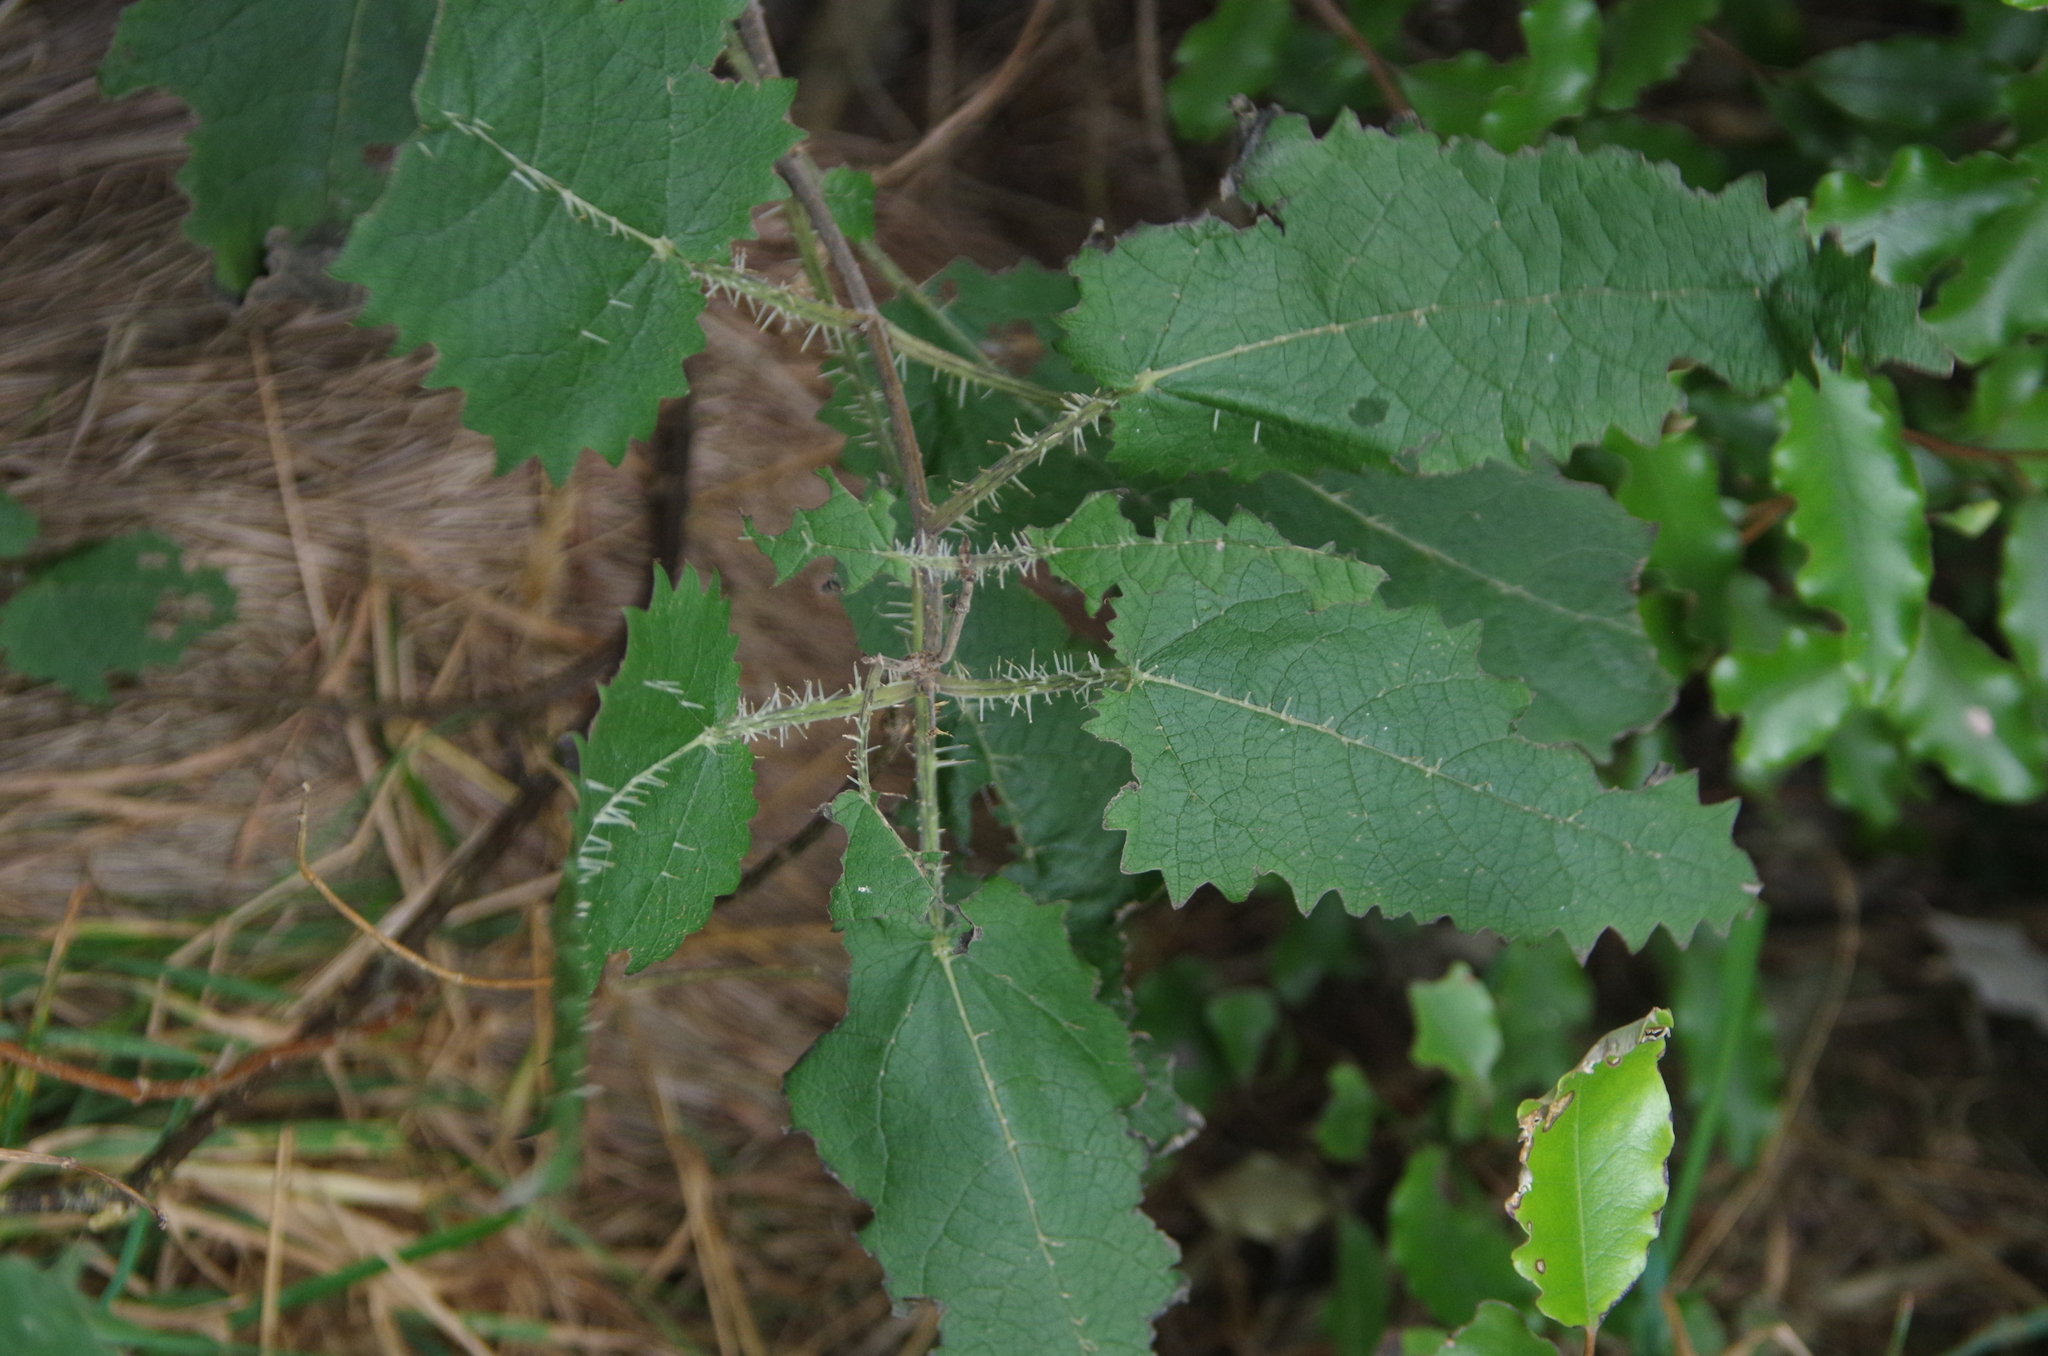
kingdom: Plantae
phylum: Tracheophyta
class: Magnoliopsida
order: Rosales
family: Urticaceae
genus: Urtica
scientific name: Urtica ferox
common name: Tree nettle
